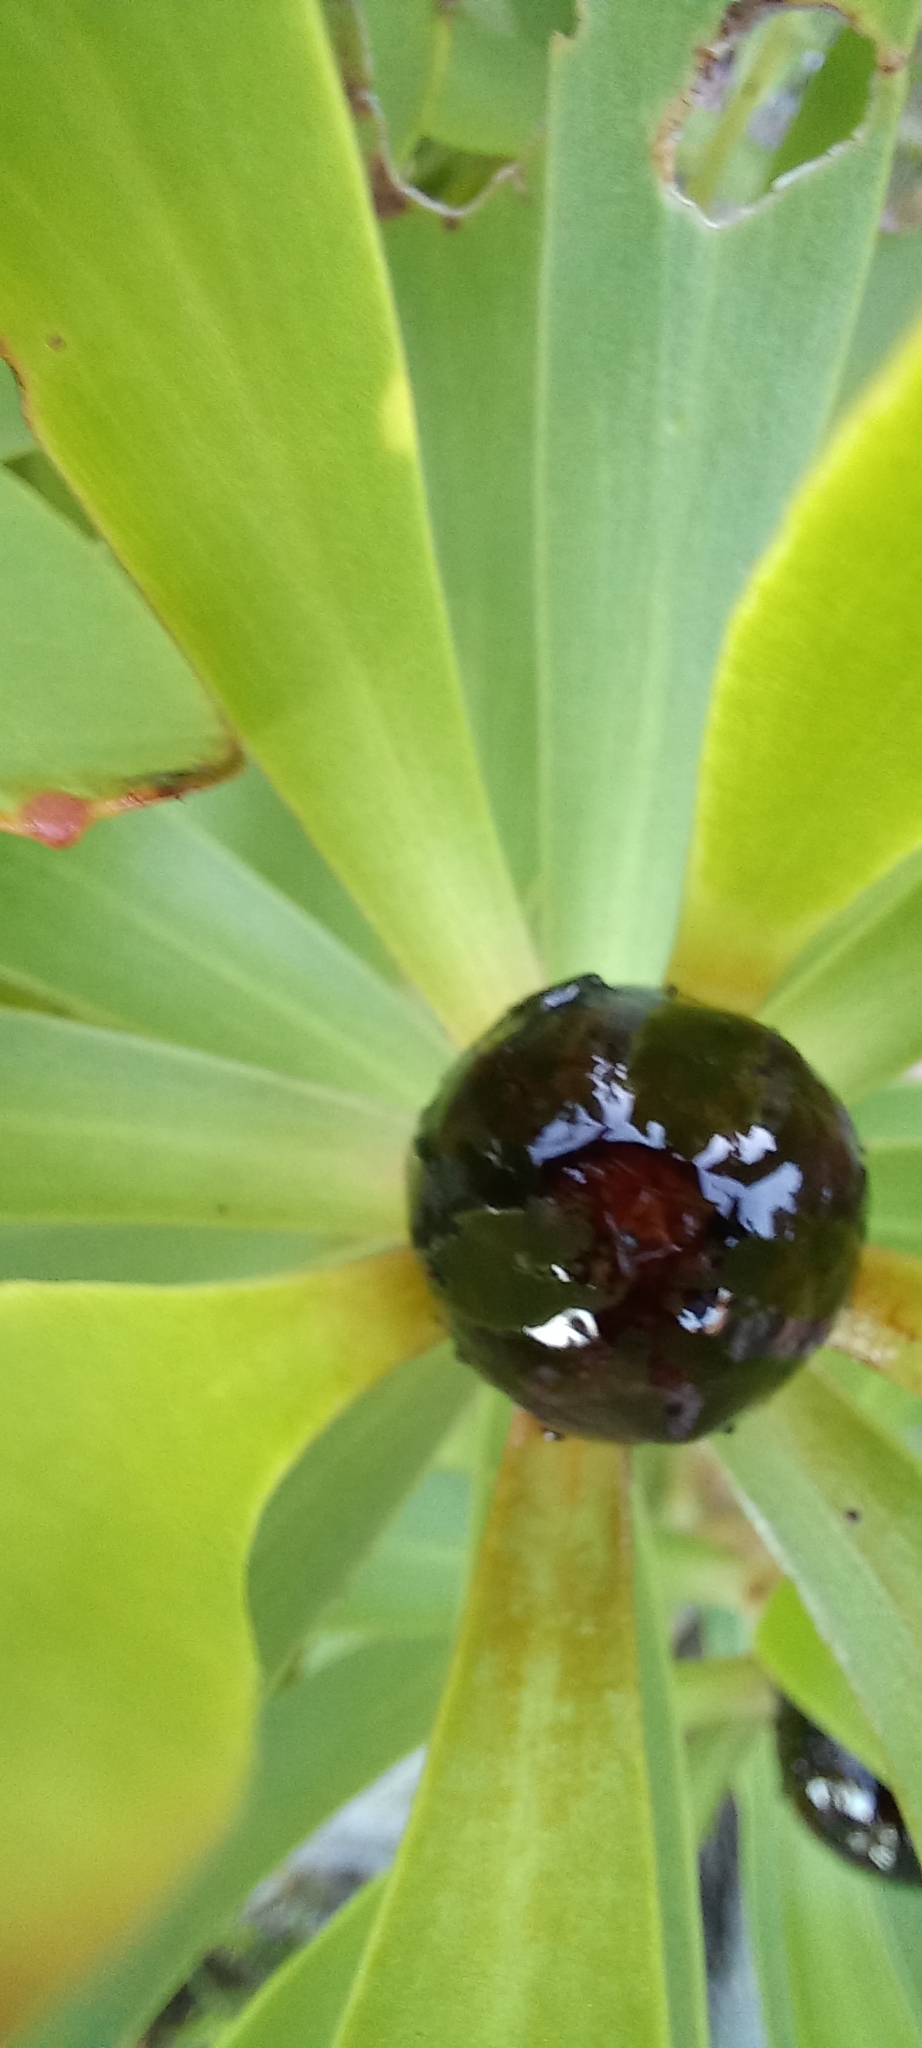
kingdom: Plantae
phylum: Tracheophyta
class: Magnoliopsida
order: Proteales
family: Proteaceae
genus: Leucadendron
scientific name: Leucadendron microcephalum
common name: Oilbract conebush
